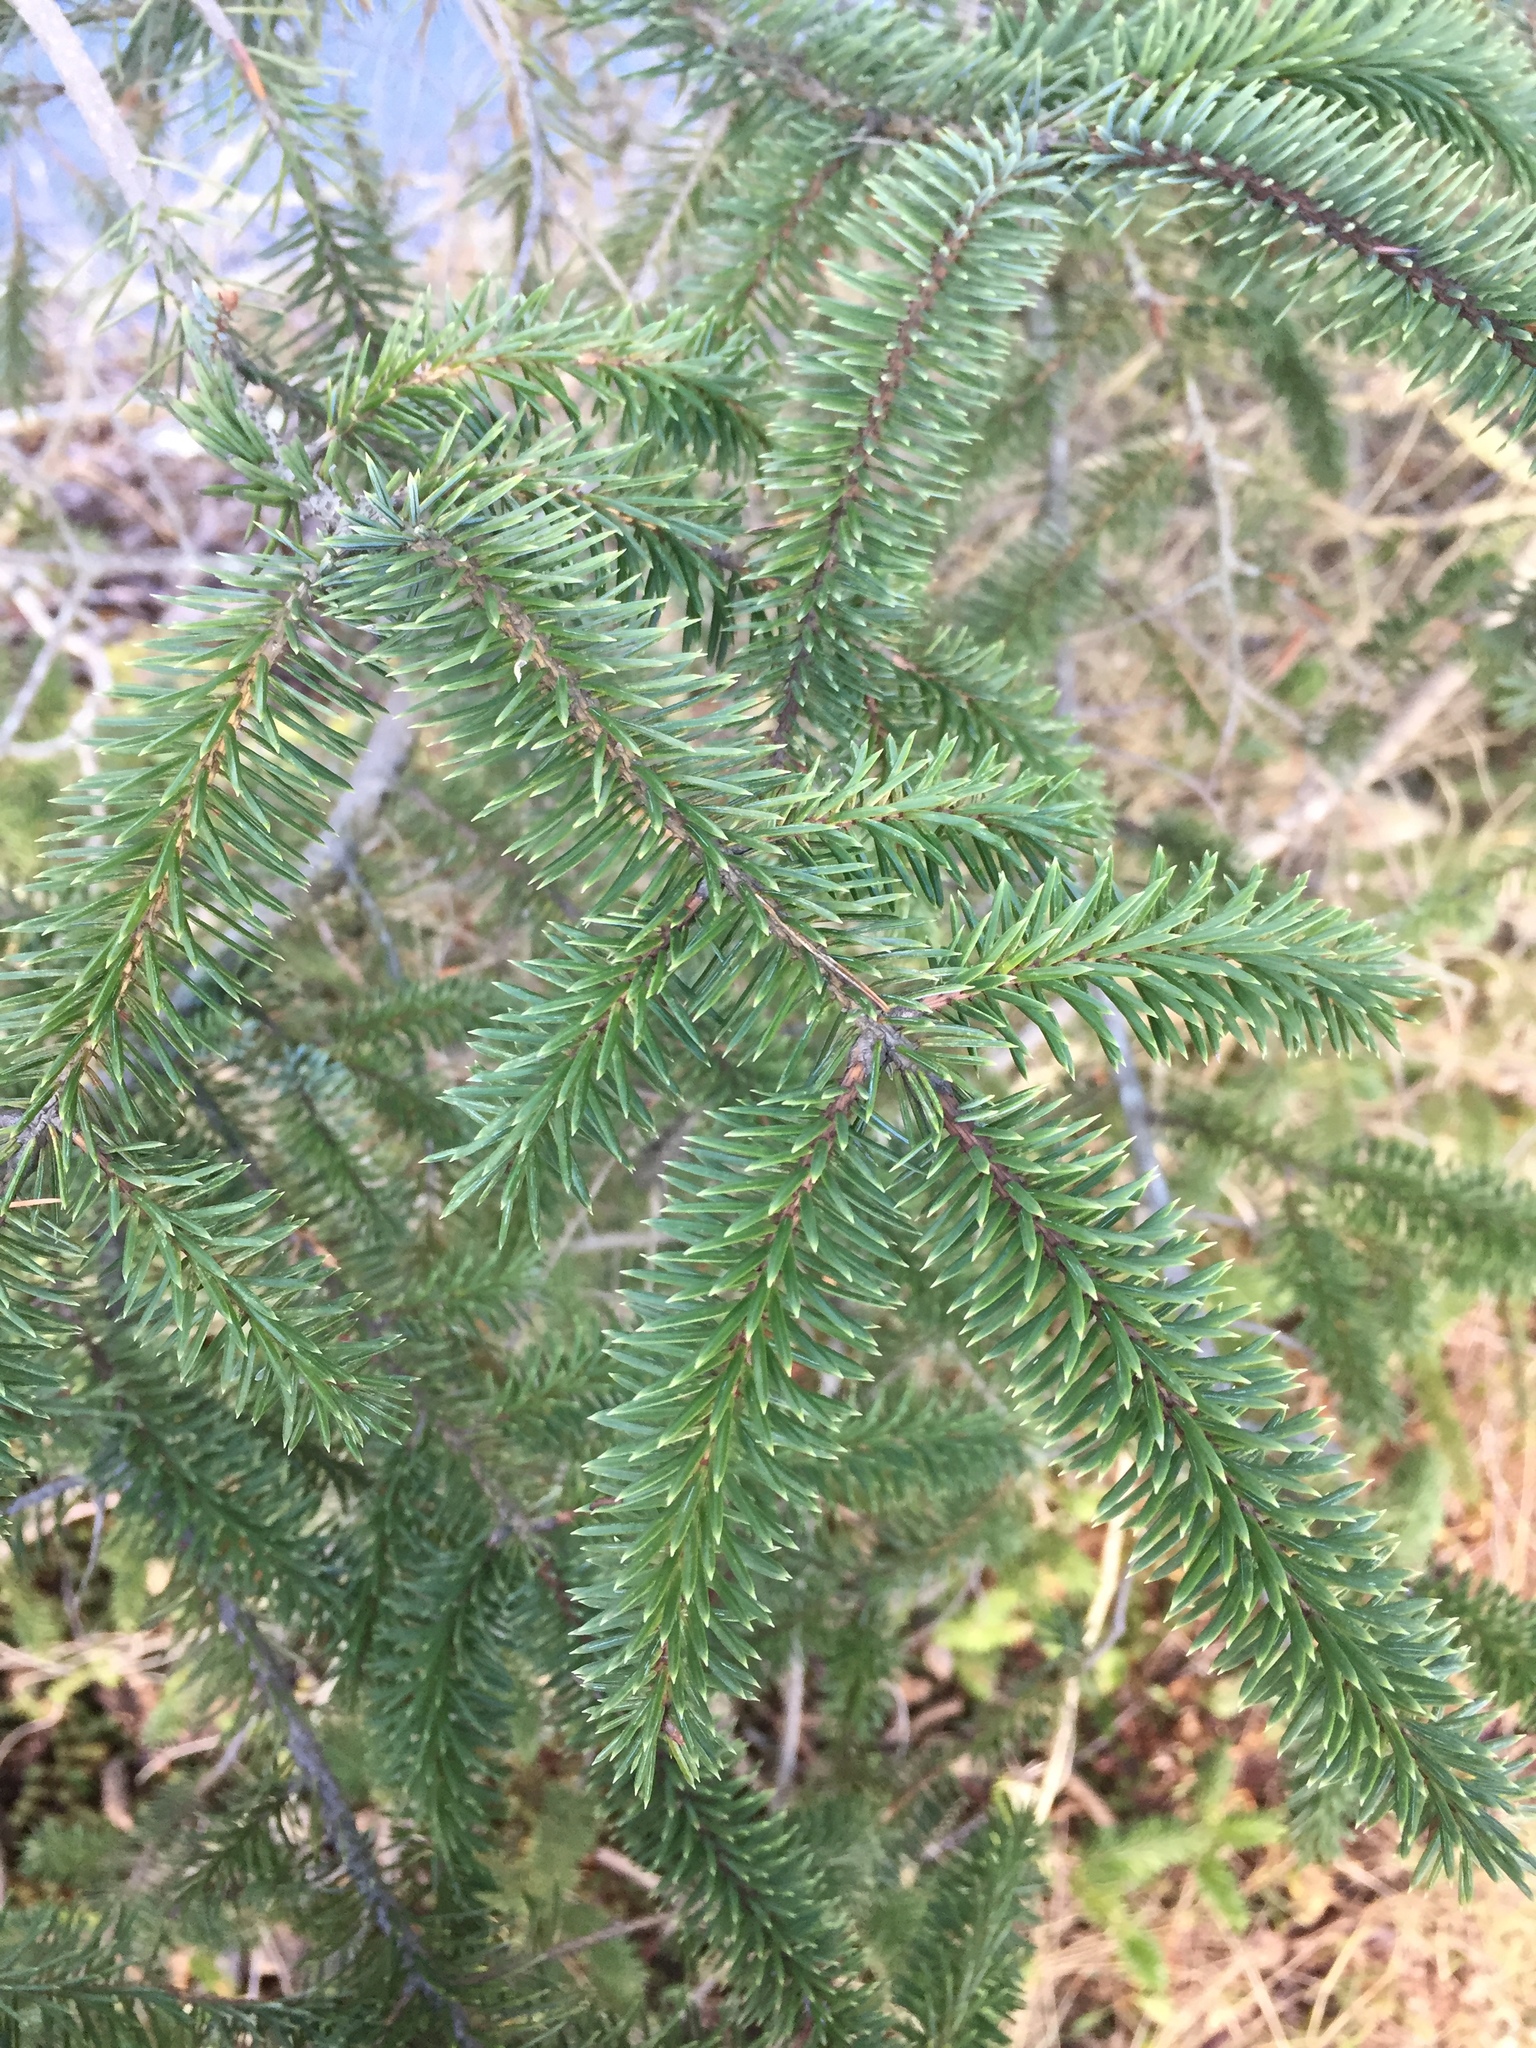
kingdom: Plantae
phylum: Tracheophyta
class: Pinopsida
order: Pinales
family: Pinaceae
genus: Picea
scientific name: Picea sitchensis
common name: Sitka spruce
